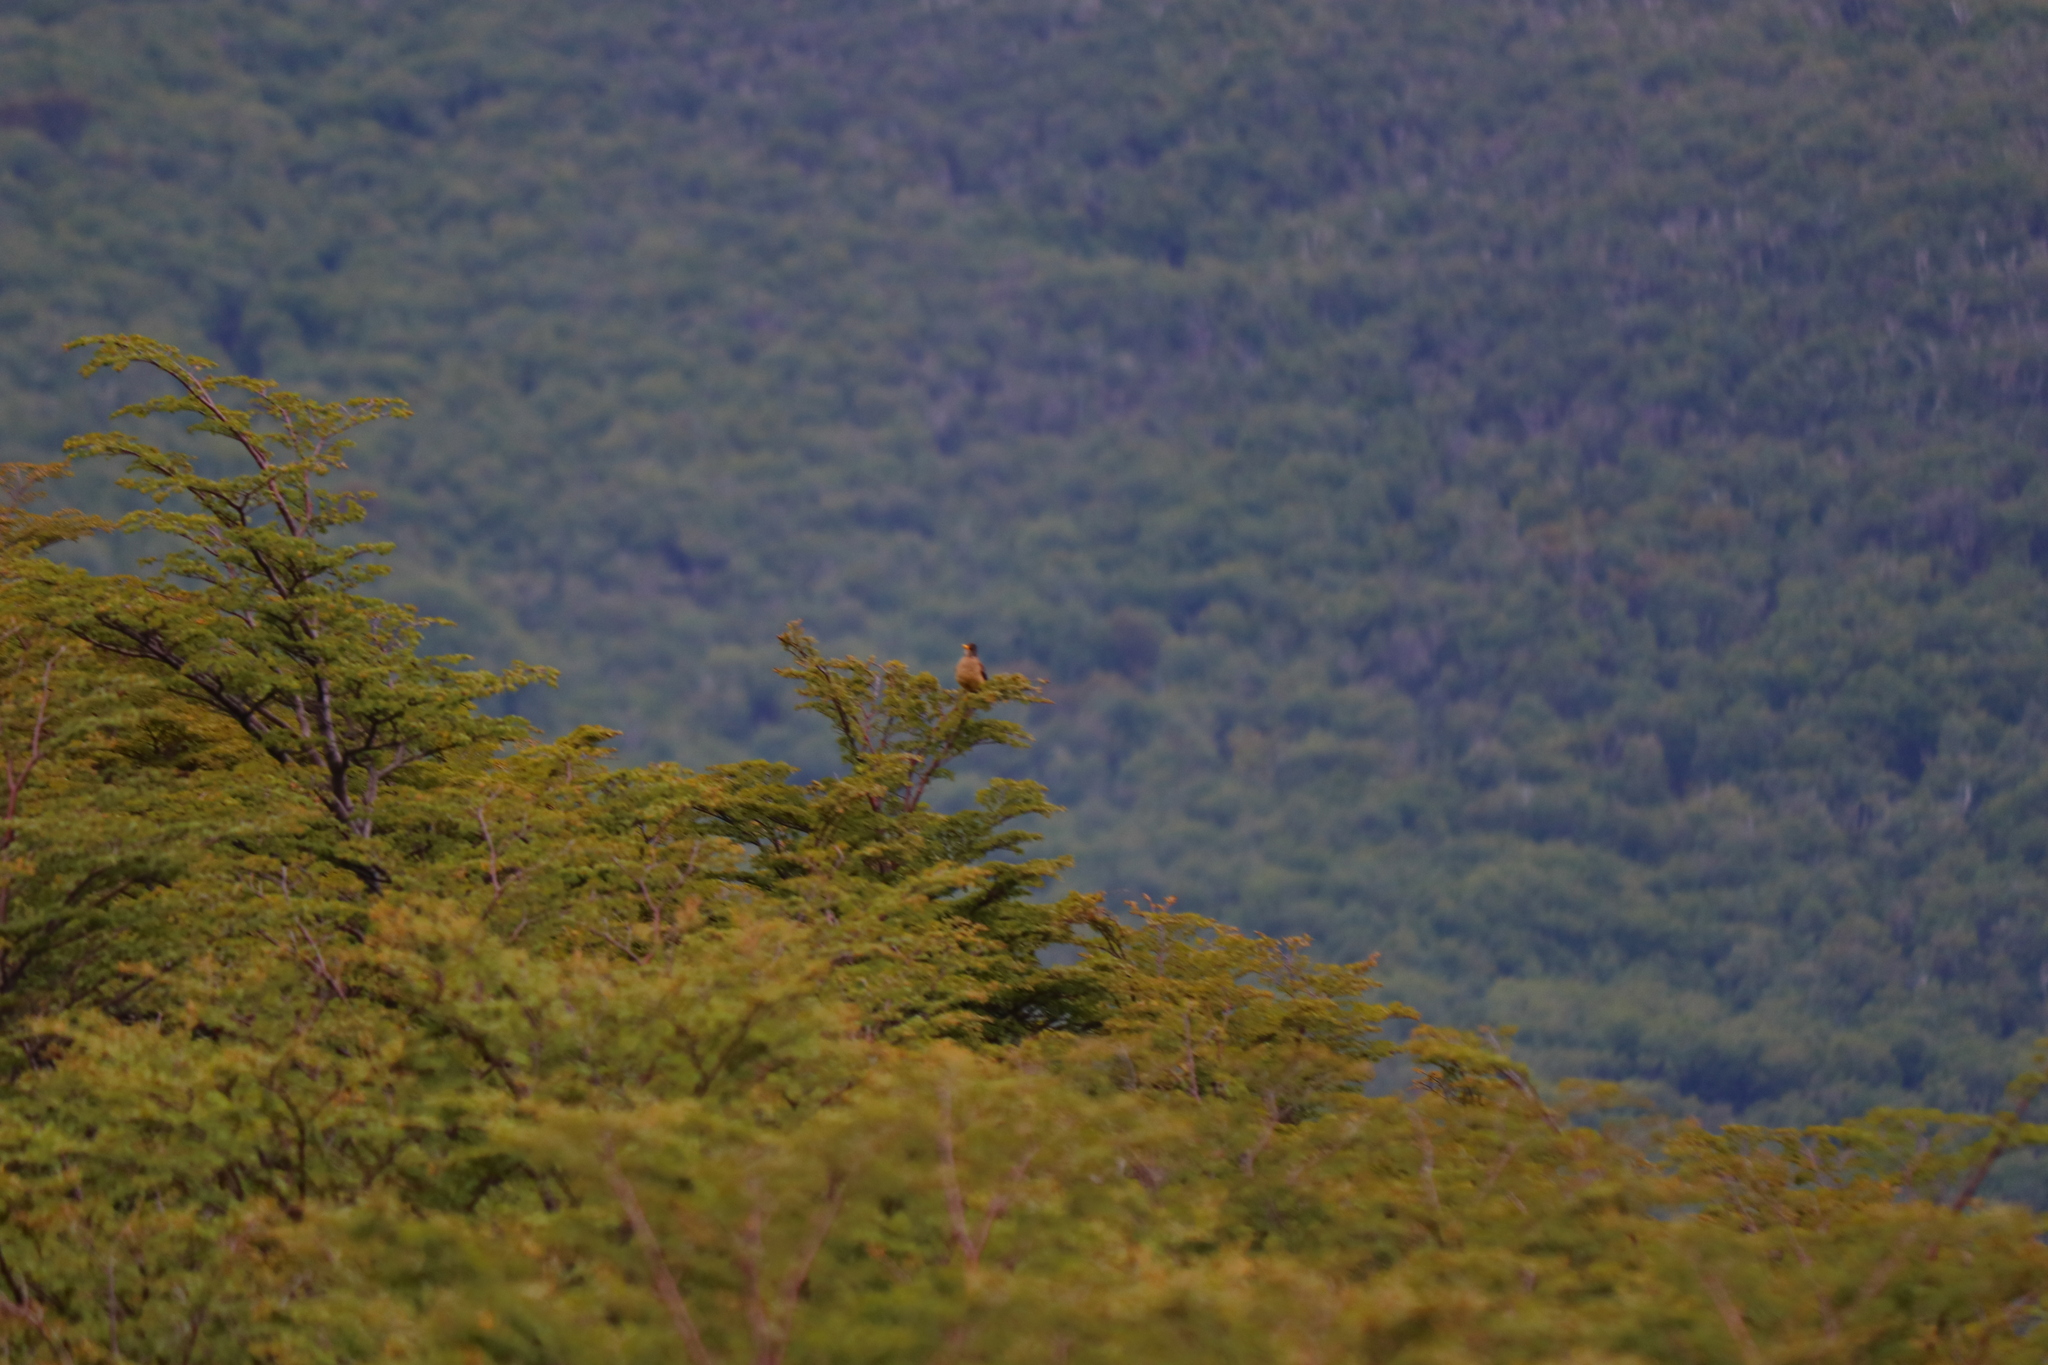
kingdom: Animalia
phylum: Chordata
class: Aves
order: Passeriformes
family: Turdidae
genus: Turdus
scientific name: Turdus falcklandii
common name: Austral thrush
